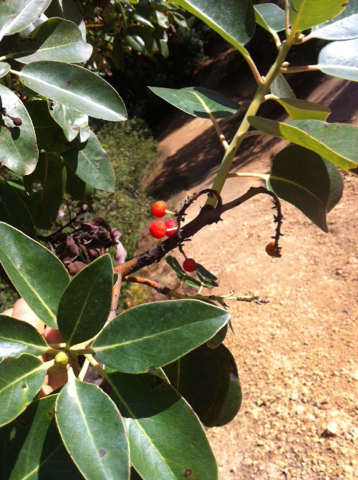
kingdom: Plantae
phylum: Tracheophyta
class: Magnoliopsida
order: Ericales
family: Ericaceae
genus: Arbutus
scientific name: Arbutus menziesii
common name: Pacific madrone
